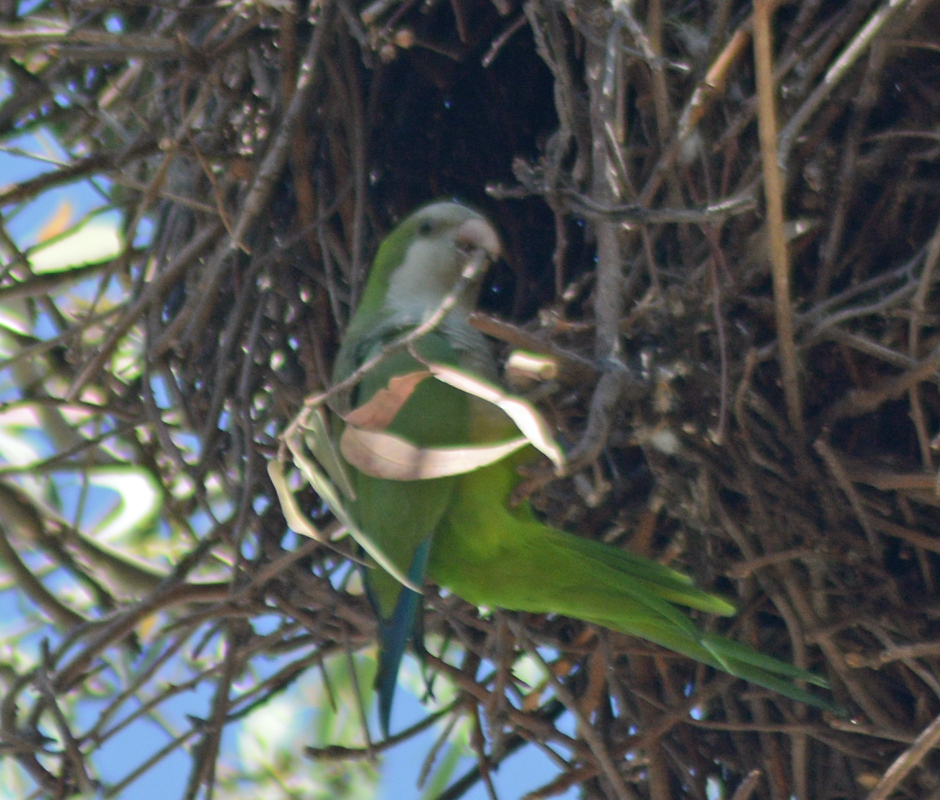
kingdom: Animalia
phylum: Chordata
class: Aves
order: Psittaciformes
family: Psittacidae
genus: Myiopsitta
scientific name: Myiopsitta monachus
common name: Monk parakeet
